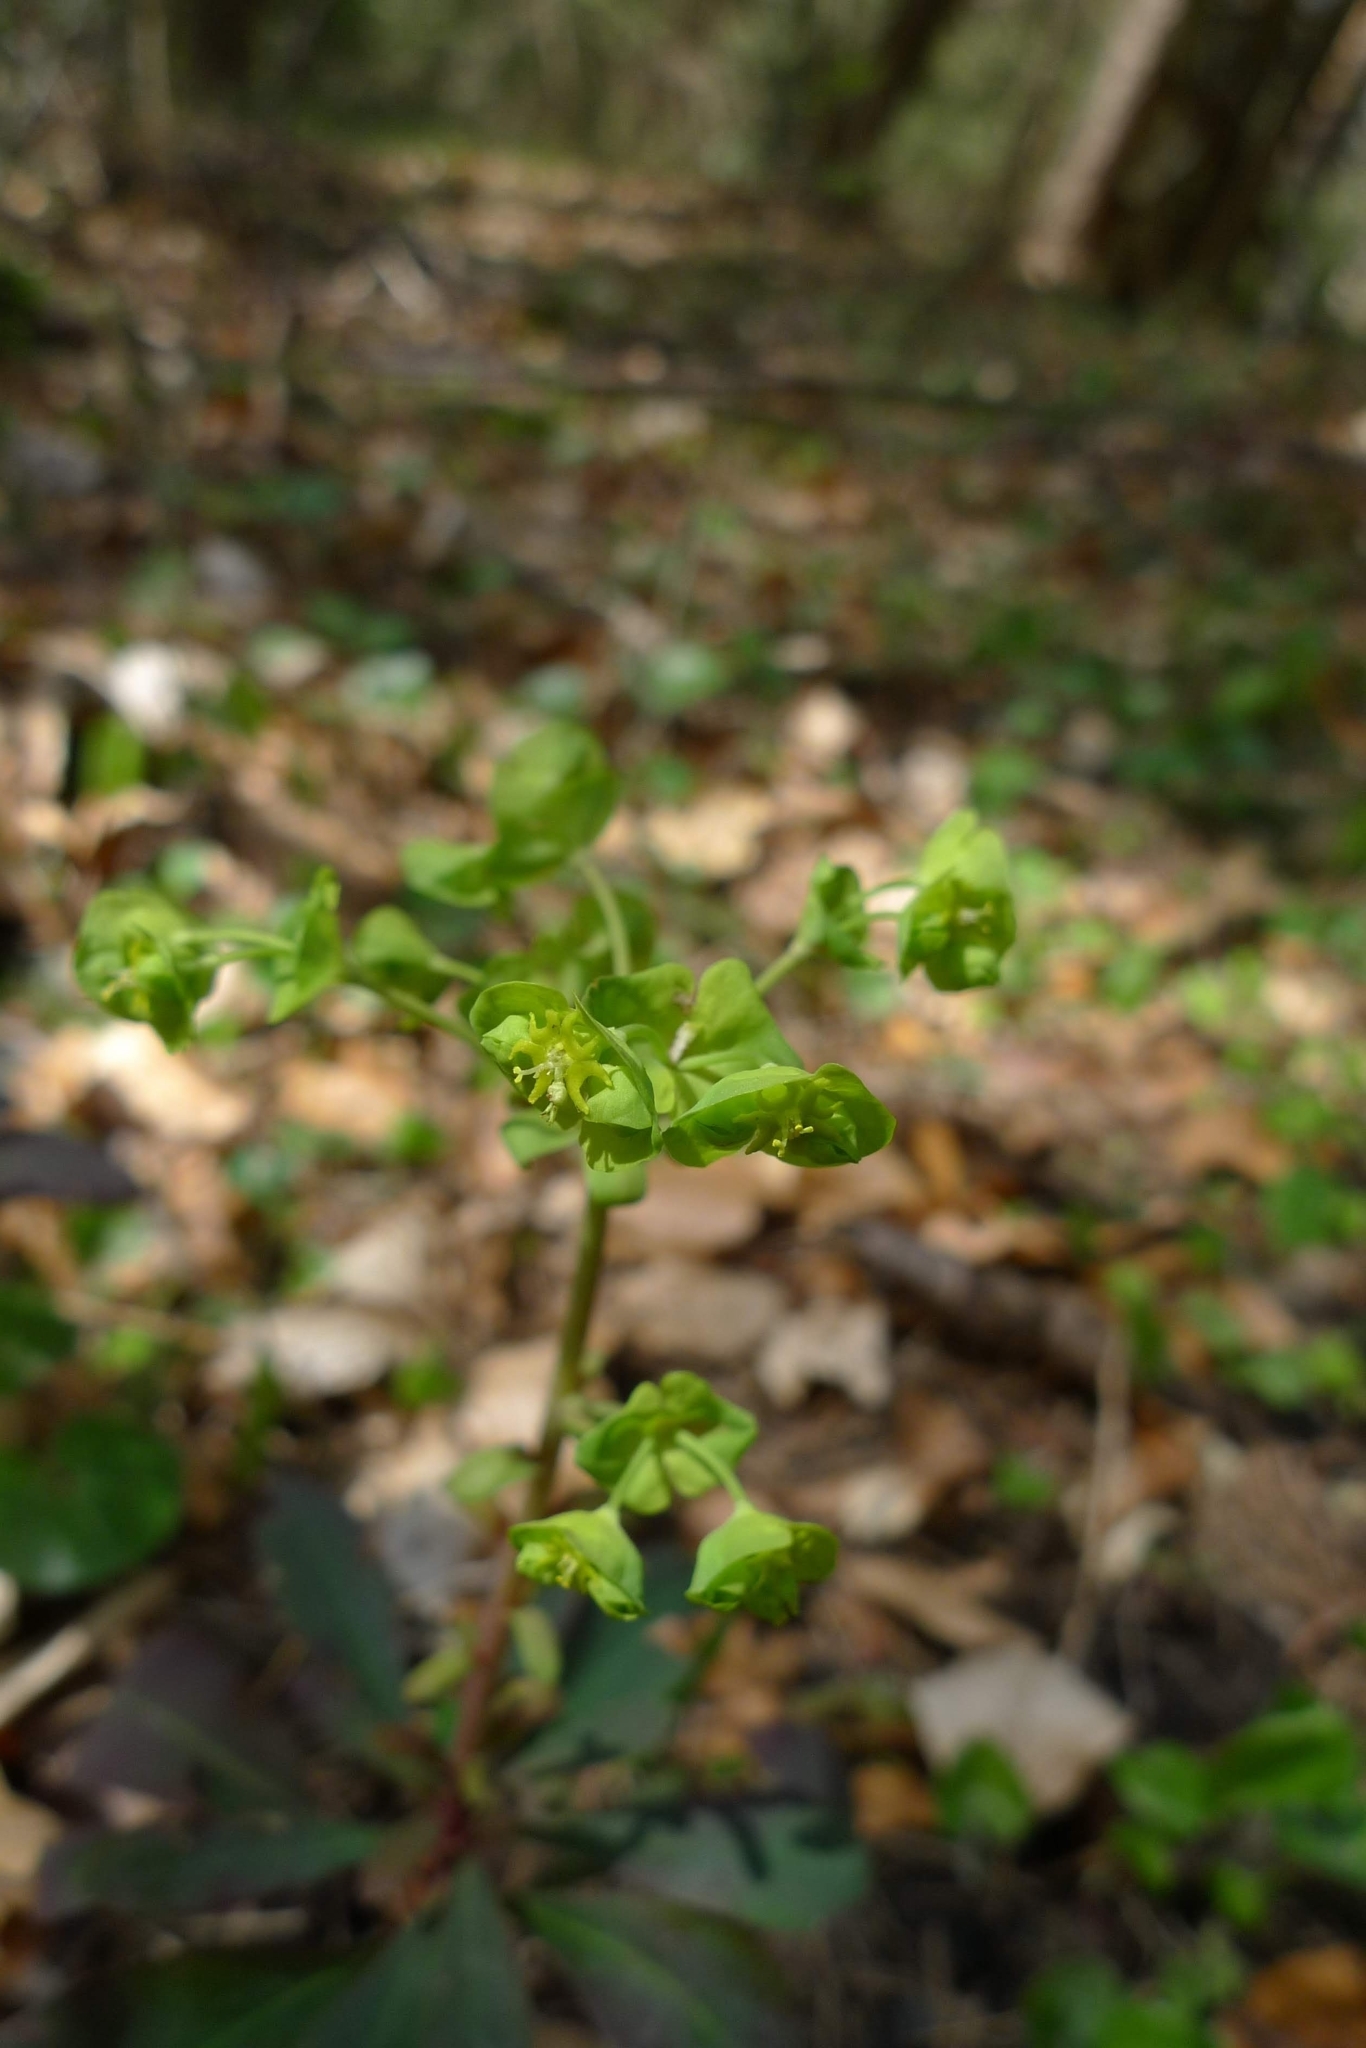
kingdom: Plantae
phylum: Tracheophyta
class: Magnoliopsida
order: Malpighiales
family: Euphorbiaceae
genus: Euphorbia
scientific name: Euphorbia amygdaloides
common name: Wood spurge
